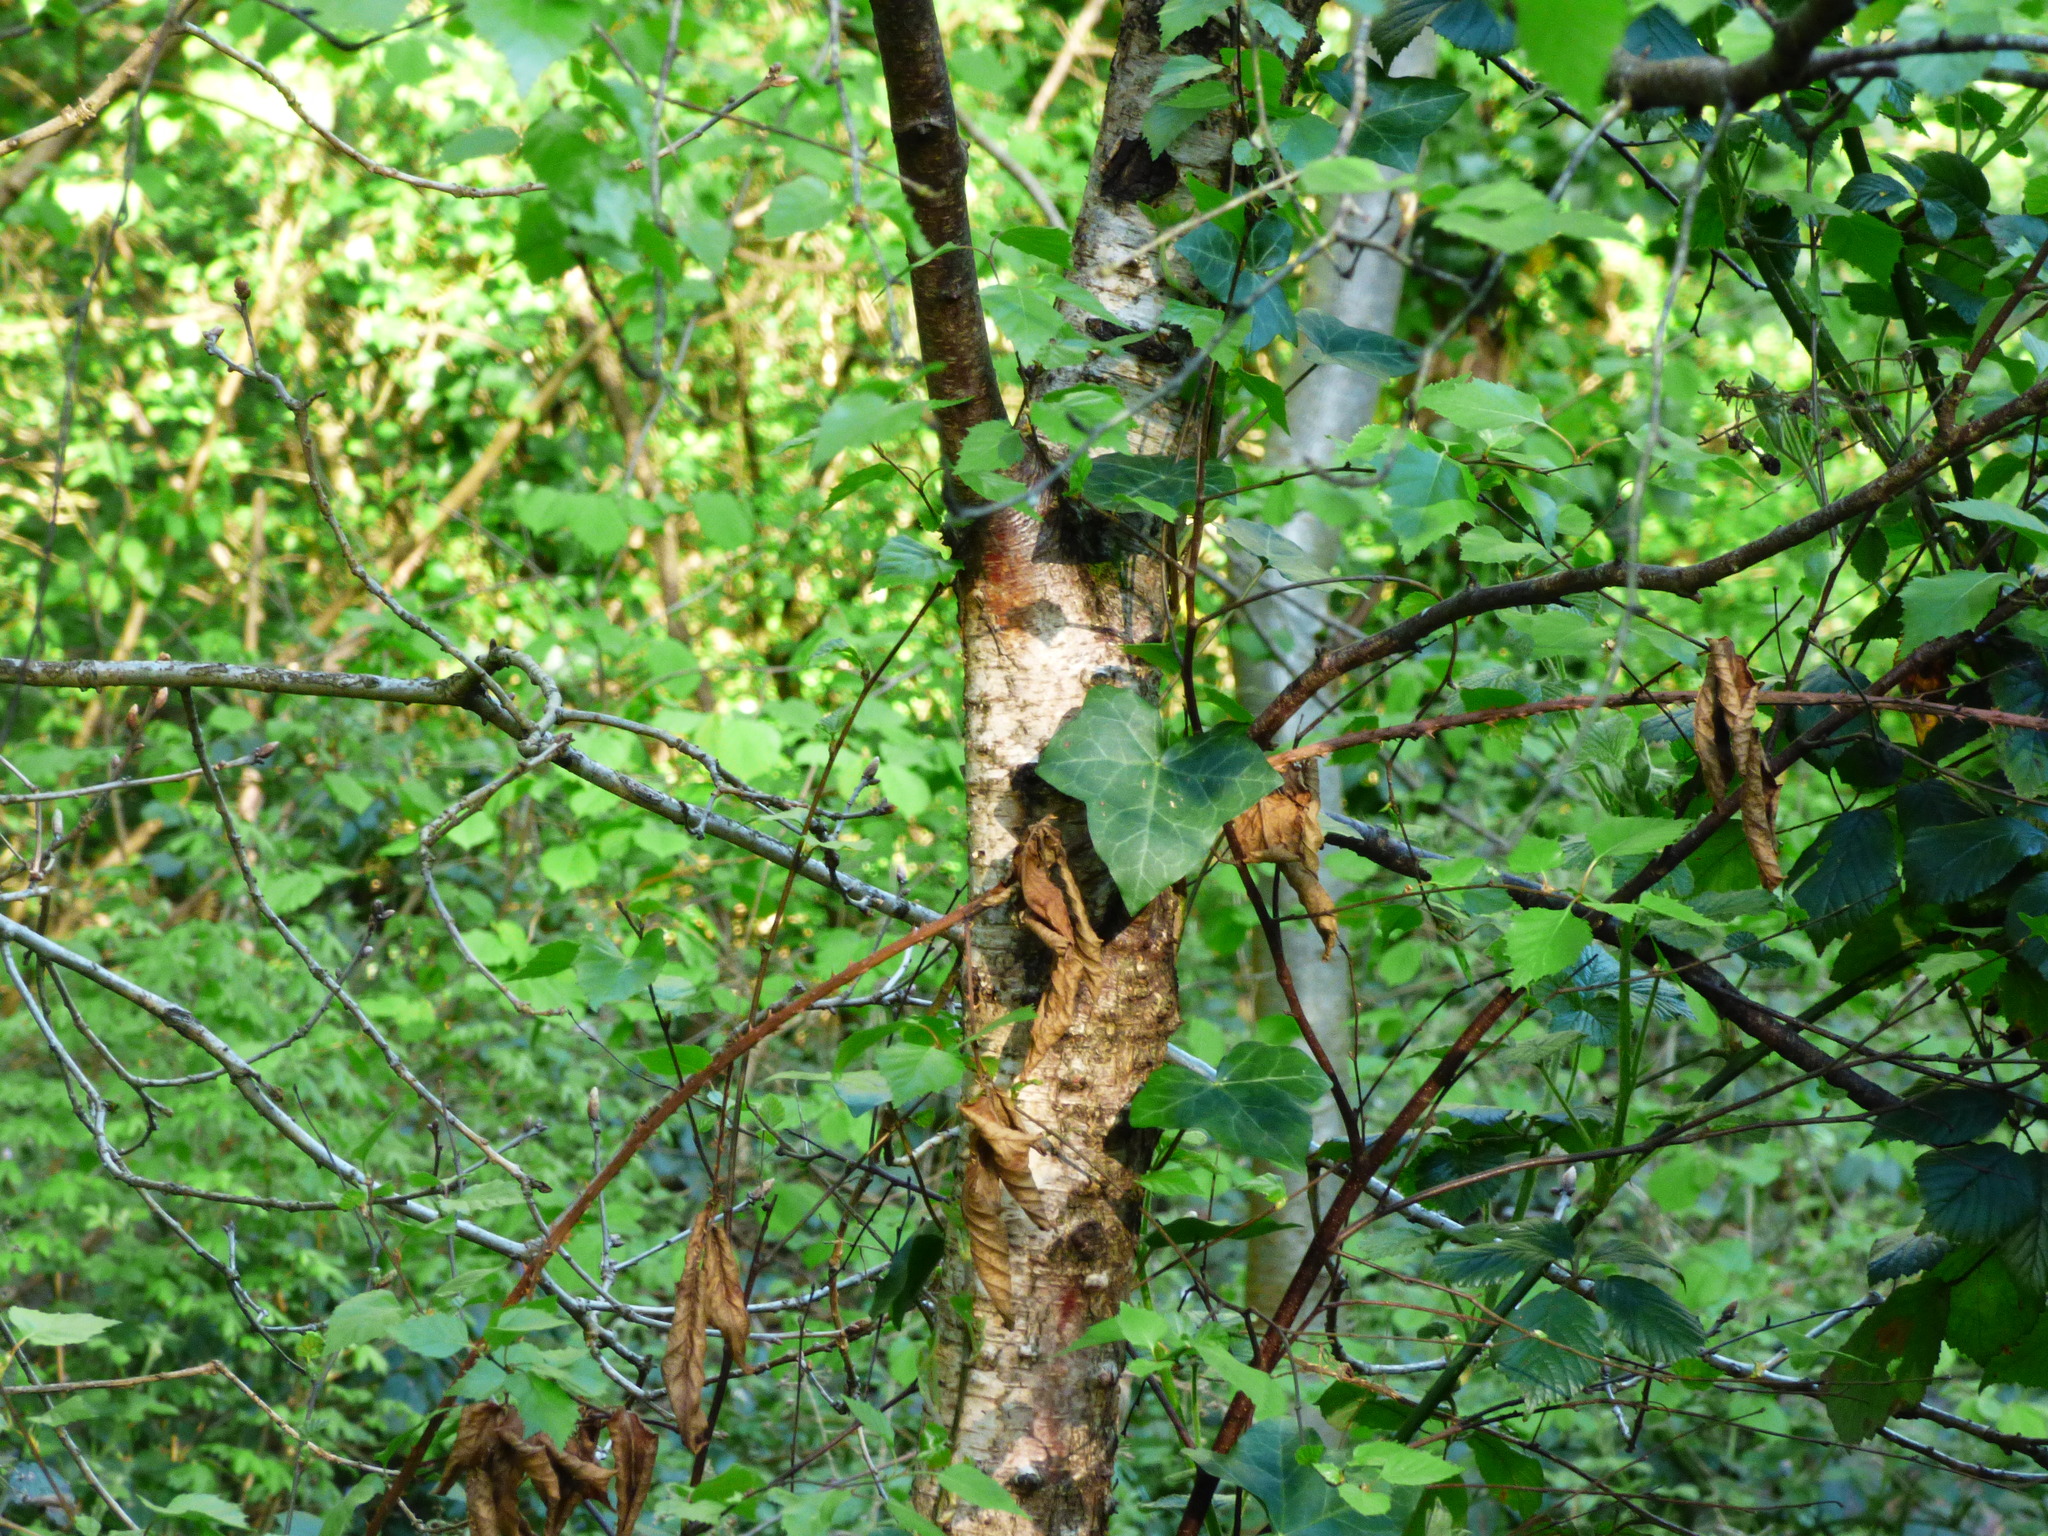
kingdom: Plantae
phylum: Tracheophyta
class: Magnoliopsida
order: Fagales
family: Betulaceae
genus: Betula
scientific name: Betula pendula
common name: Silver birch
